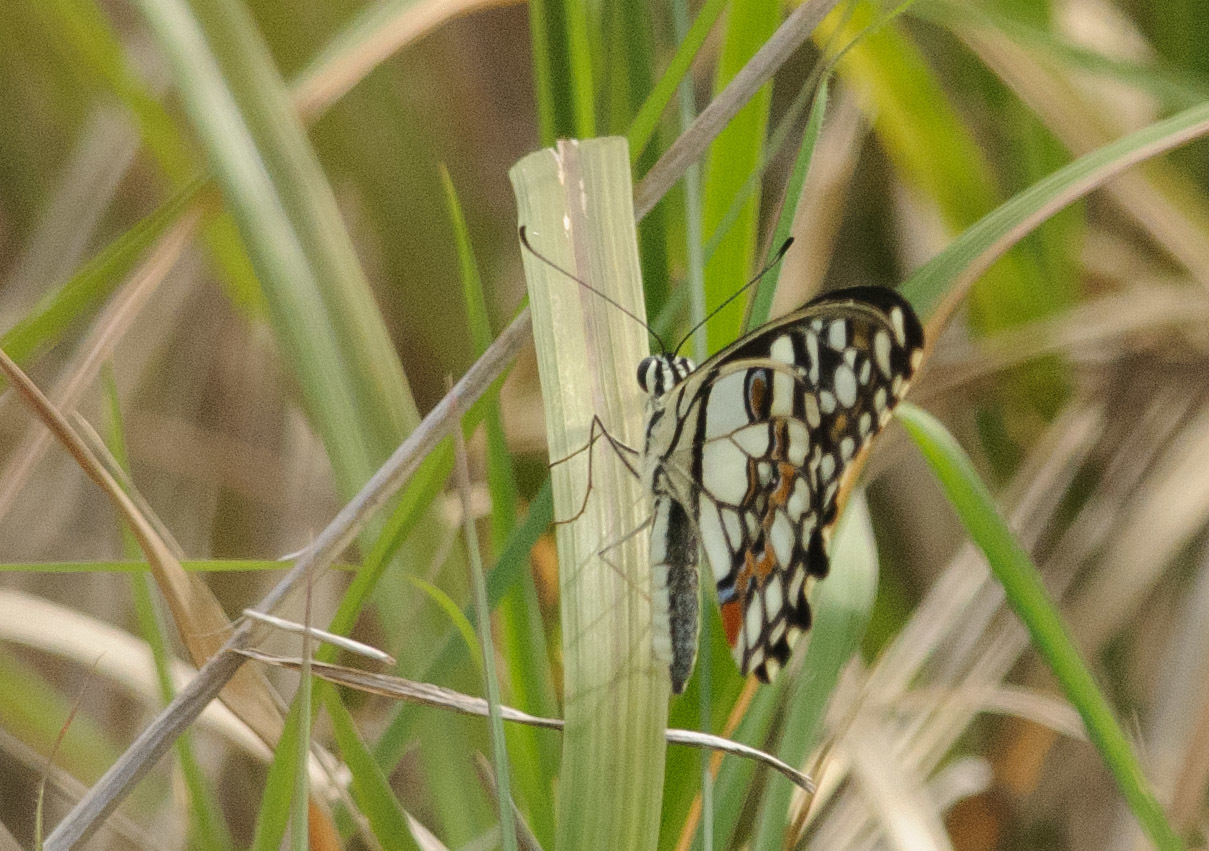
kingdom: Animalia
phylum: Arthropoda
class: Insecta
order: Lepidoptera
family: Papilionidae
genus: Papilio
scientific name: Papilio demoleus
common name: Lime butterfly
